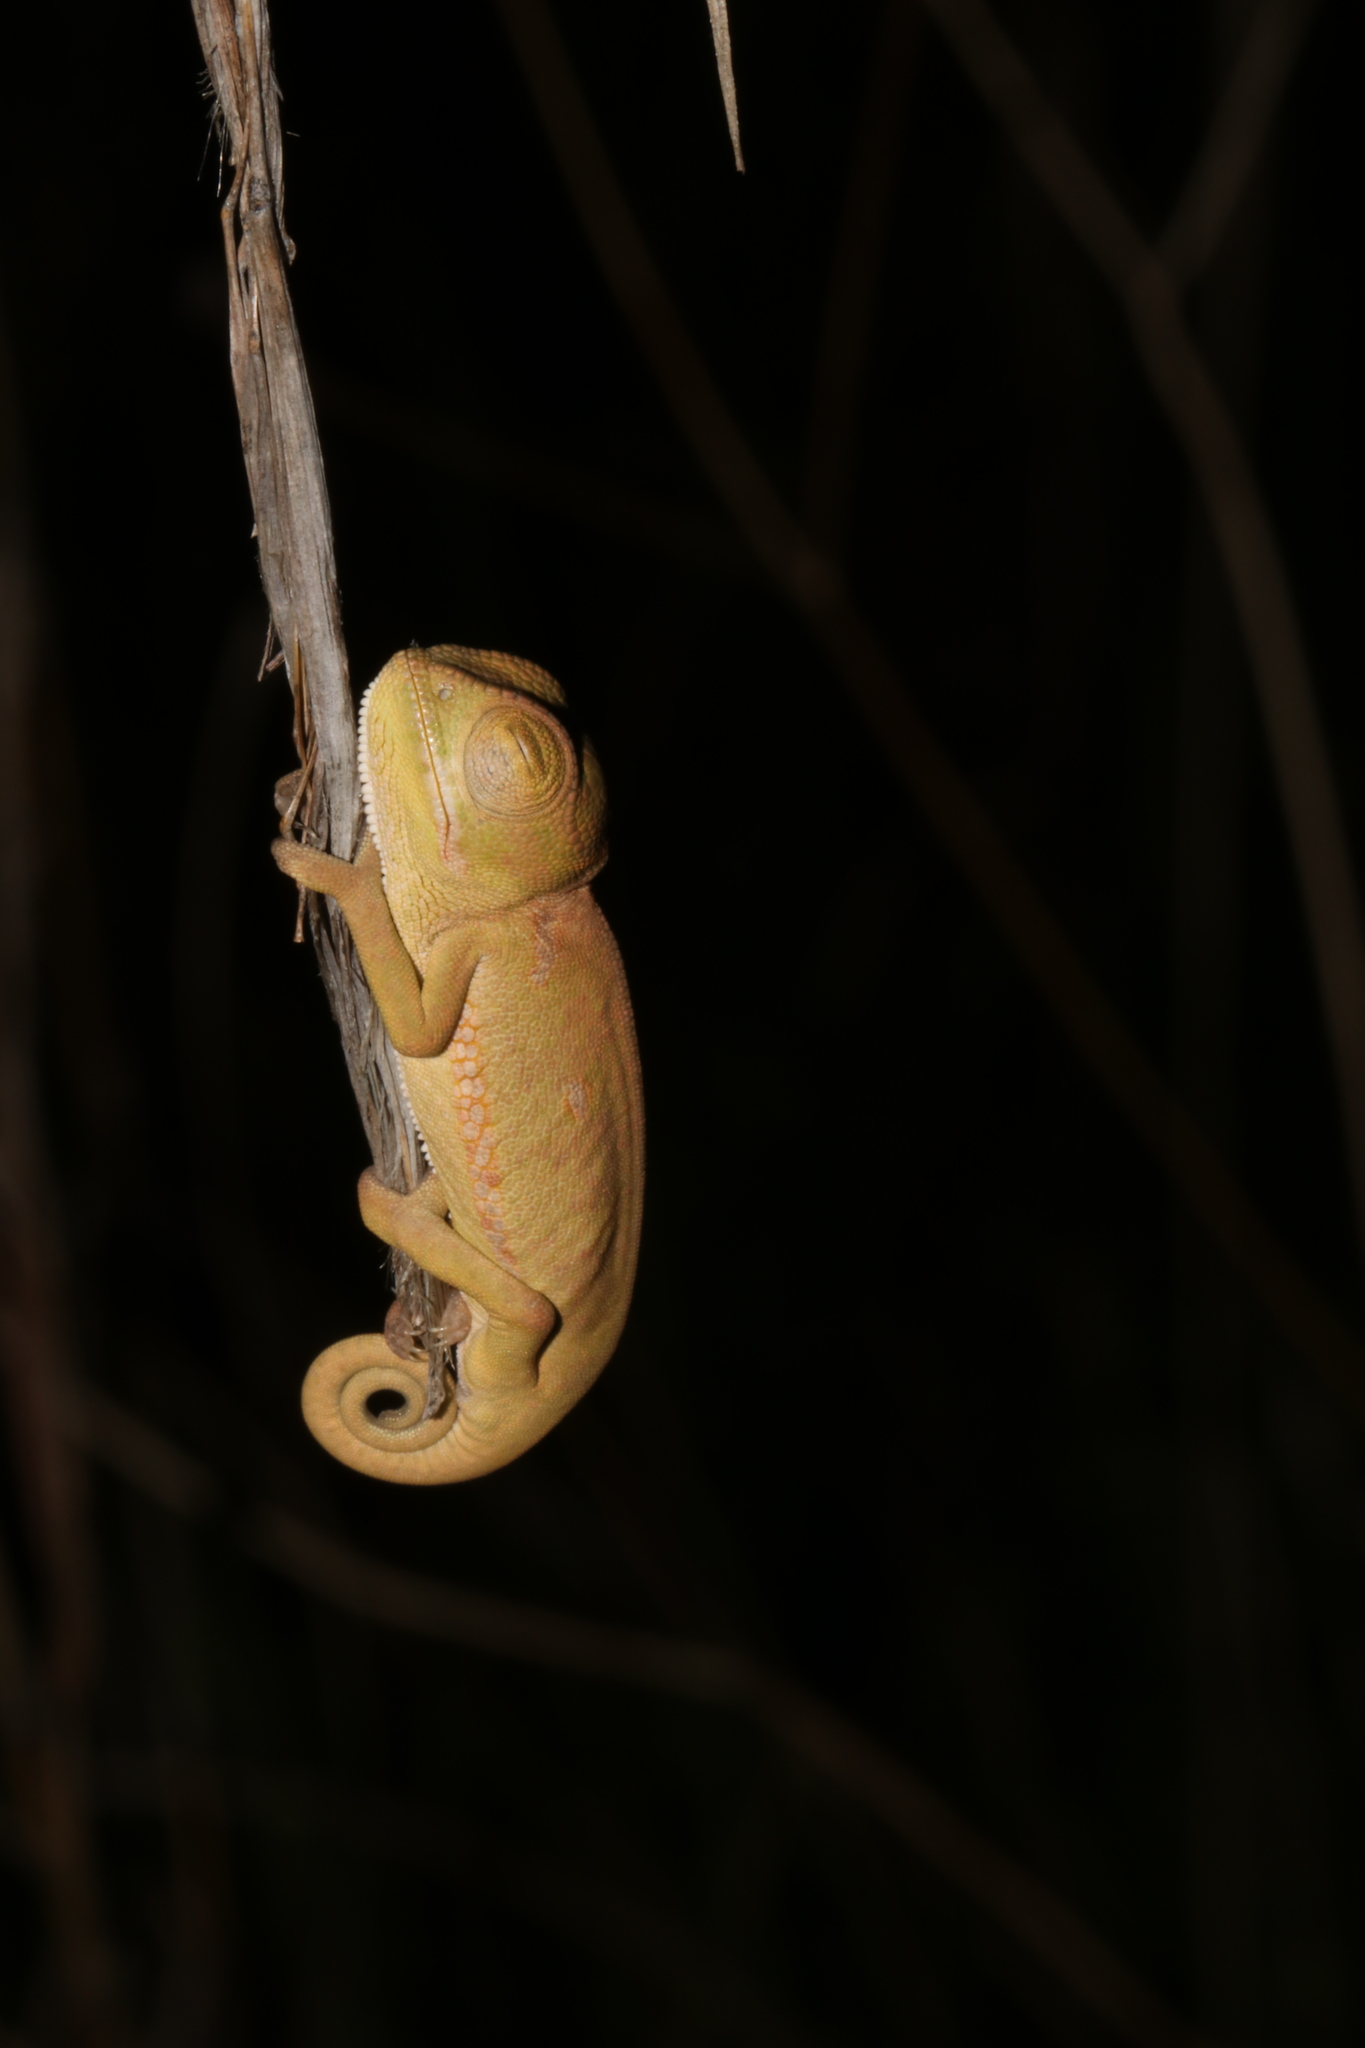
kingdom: Animalia
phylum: Chordata
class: Squamata
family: Chamaeleonidae
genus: Chamaeleo
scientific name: Chamaeleo dilepis
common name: Flapneck chameleon
